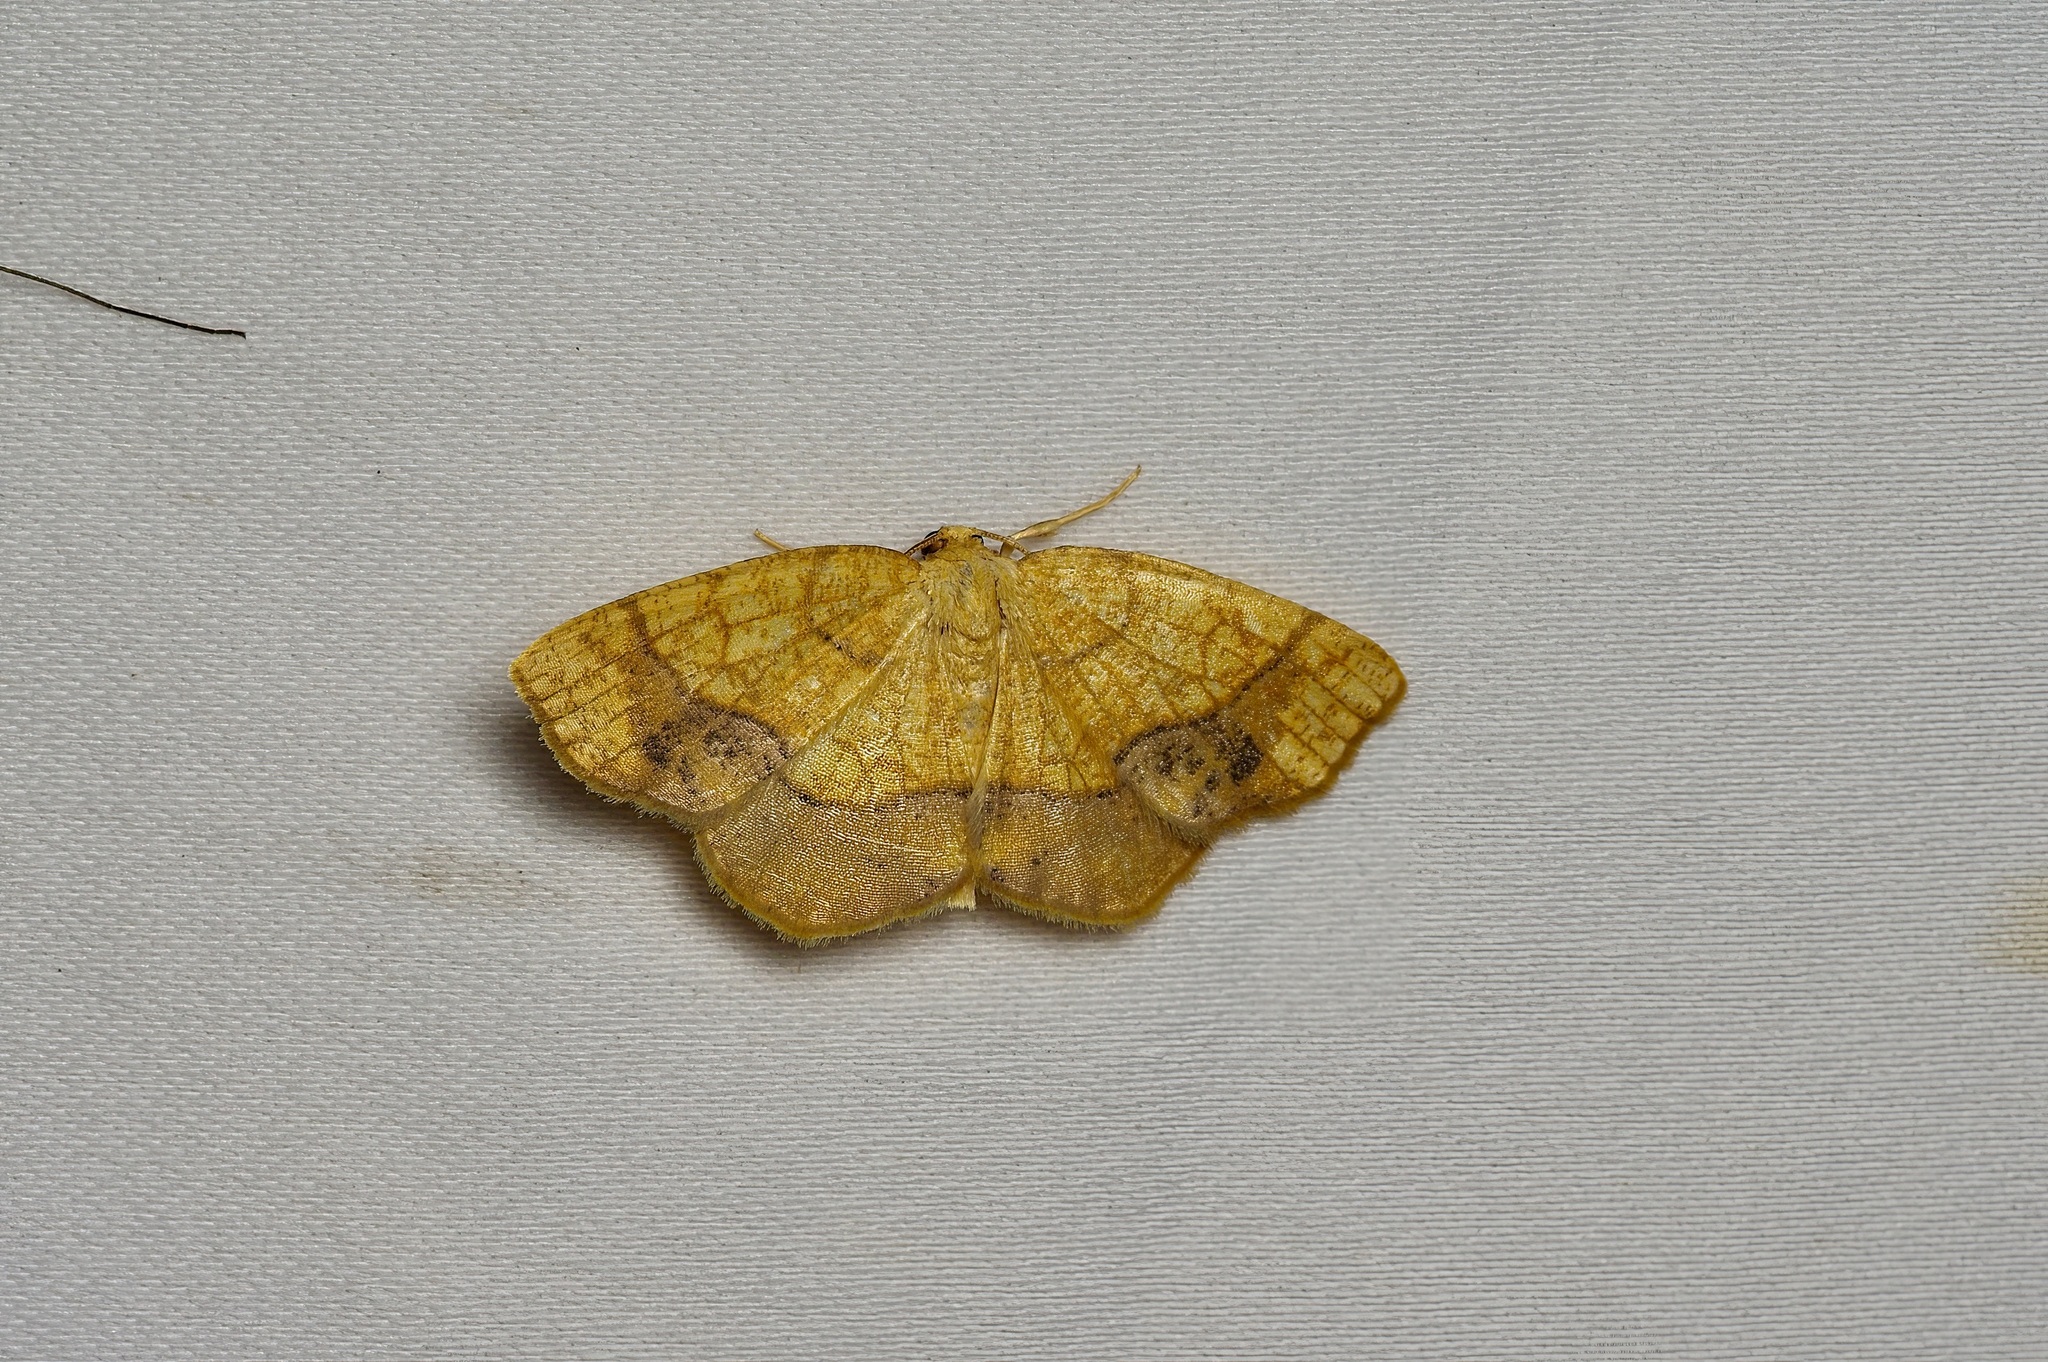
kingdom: Animalia
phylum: Arthropoda
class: Insecta
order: Lepidoptera
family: Geometridae
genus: Nematocampa
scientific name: Nematocampa resistaria
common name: Horned spanworm moth
